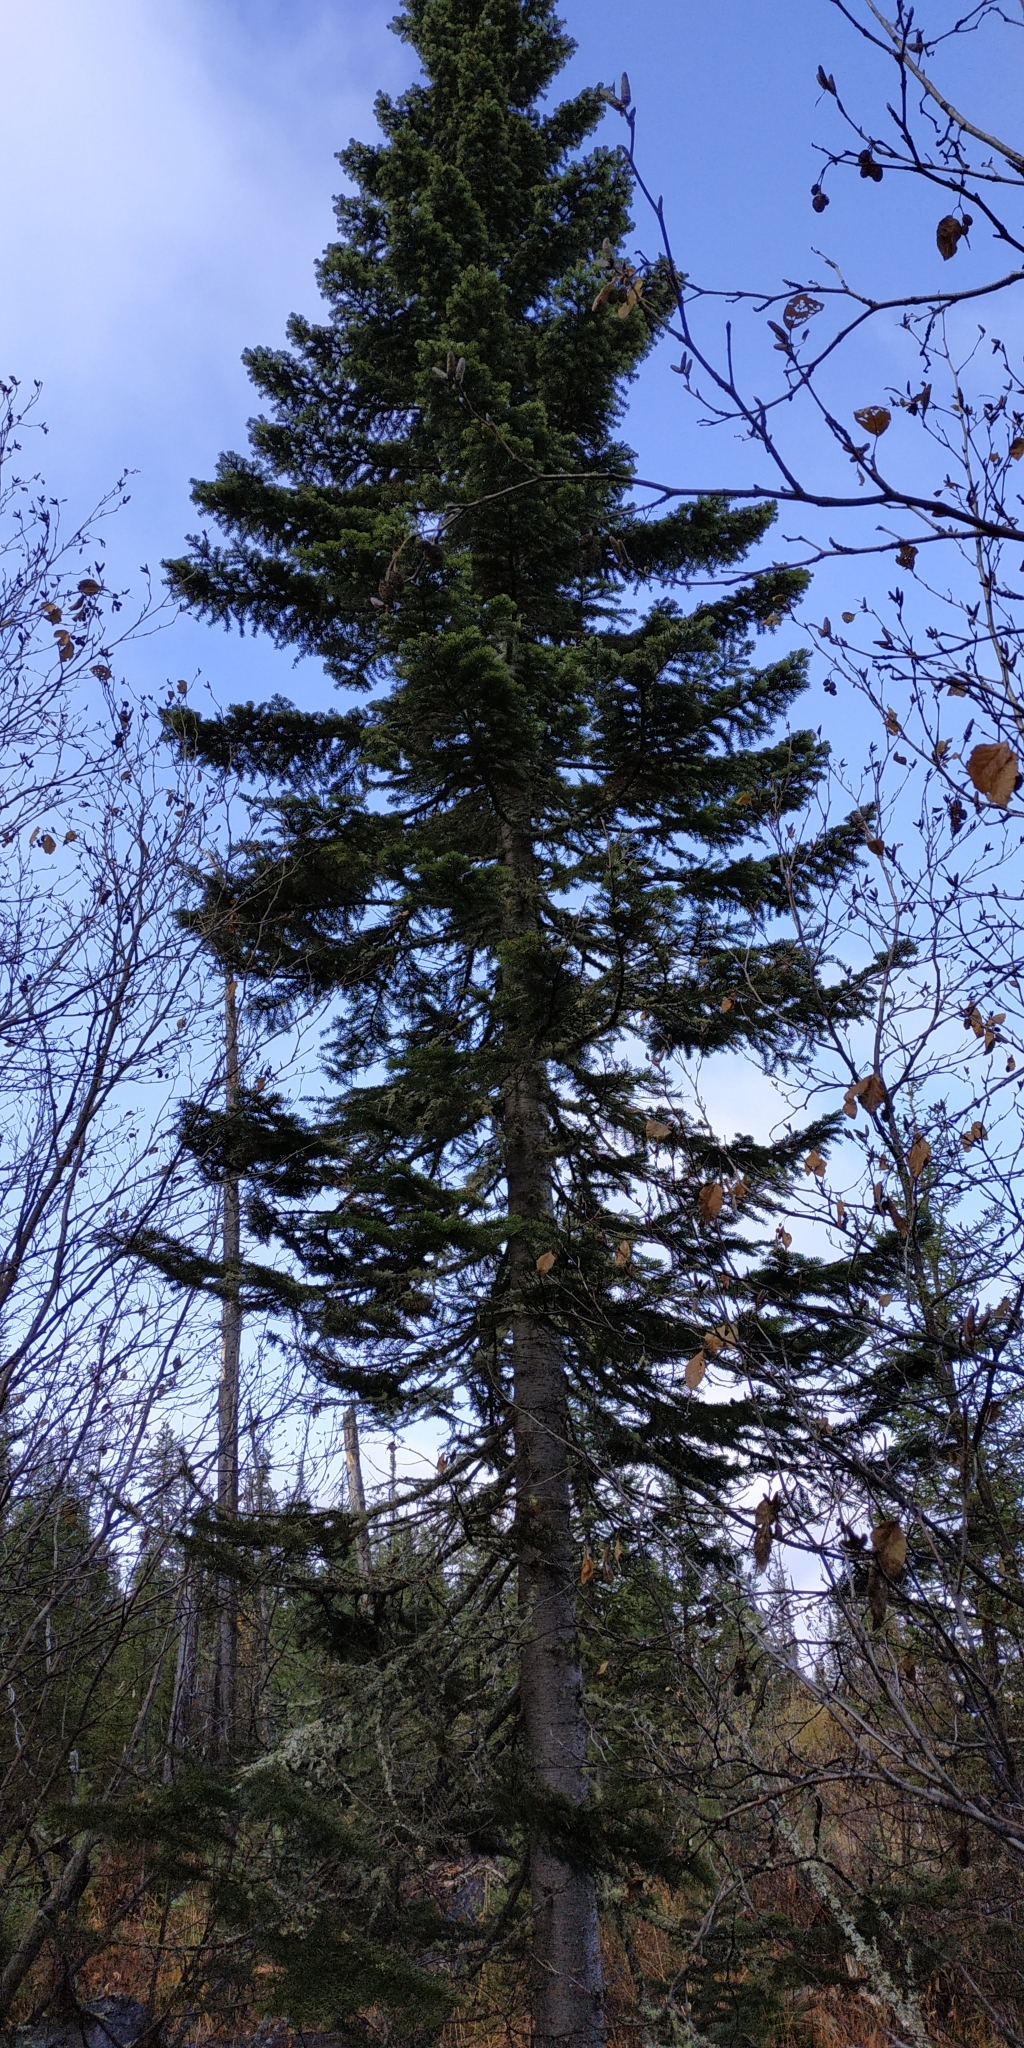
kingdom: Plantae
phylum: Tracheophyta
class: Pinopsida
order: Pinales
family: Pinaceae
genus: Abies
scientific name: Abies sibirica
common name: Siberian fir
